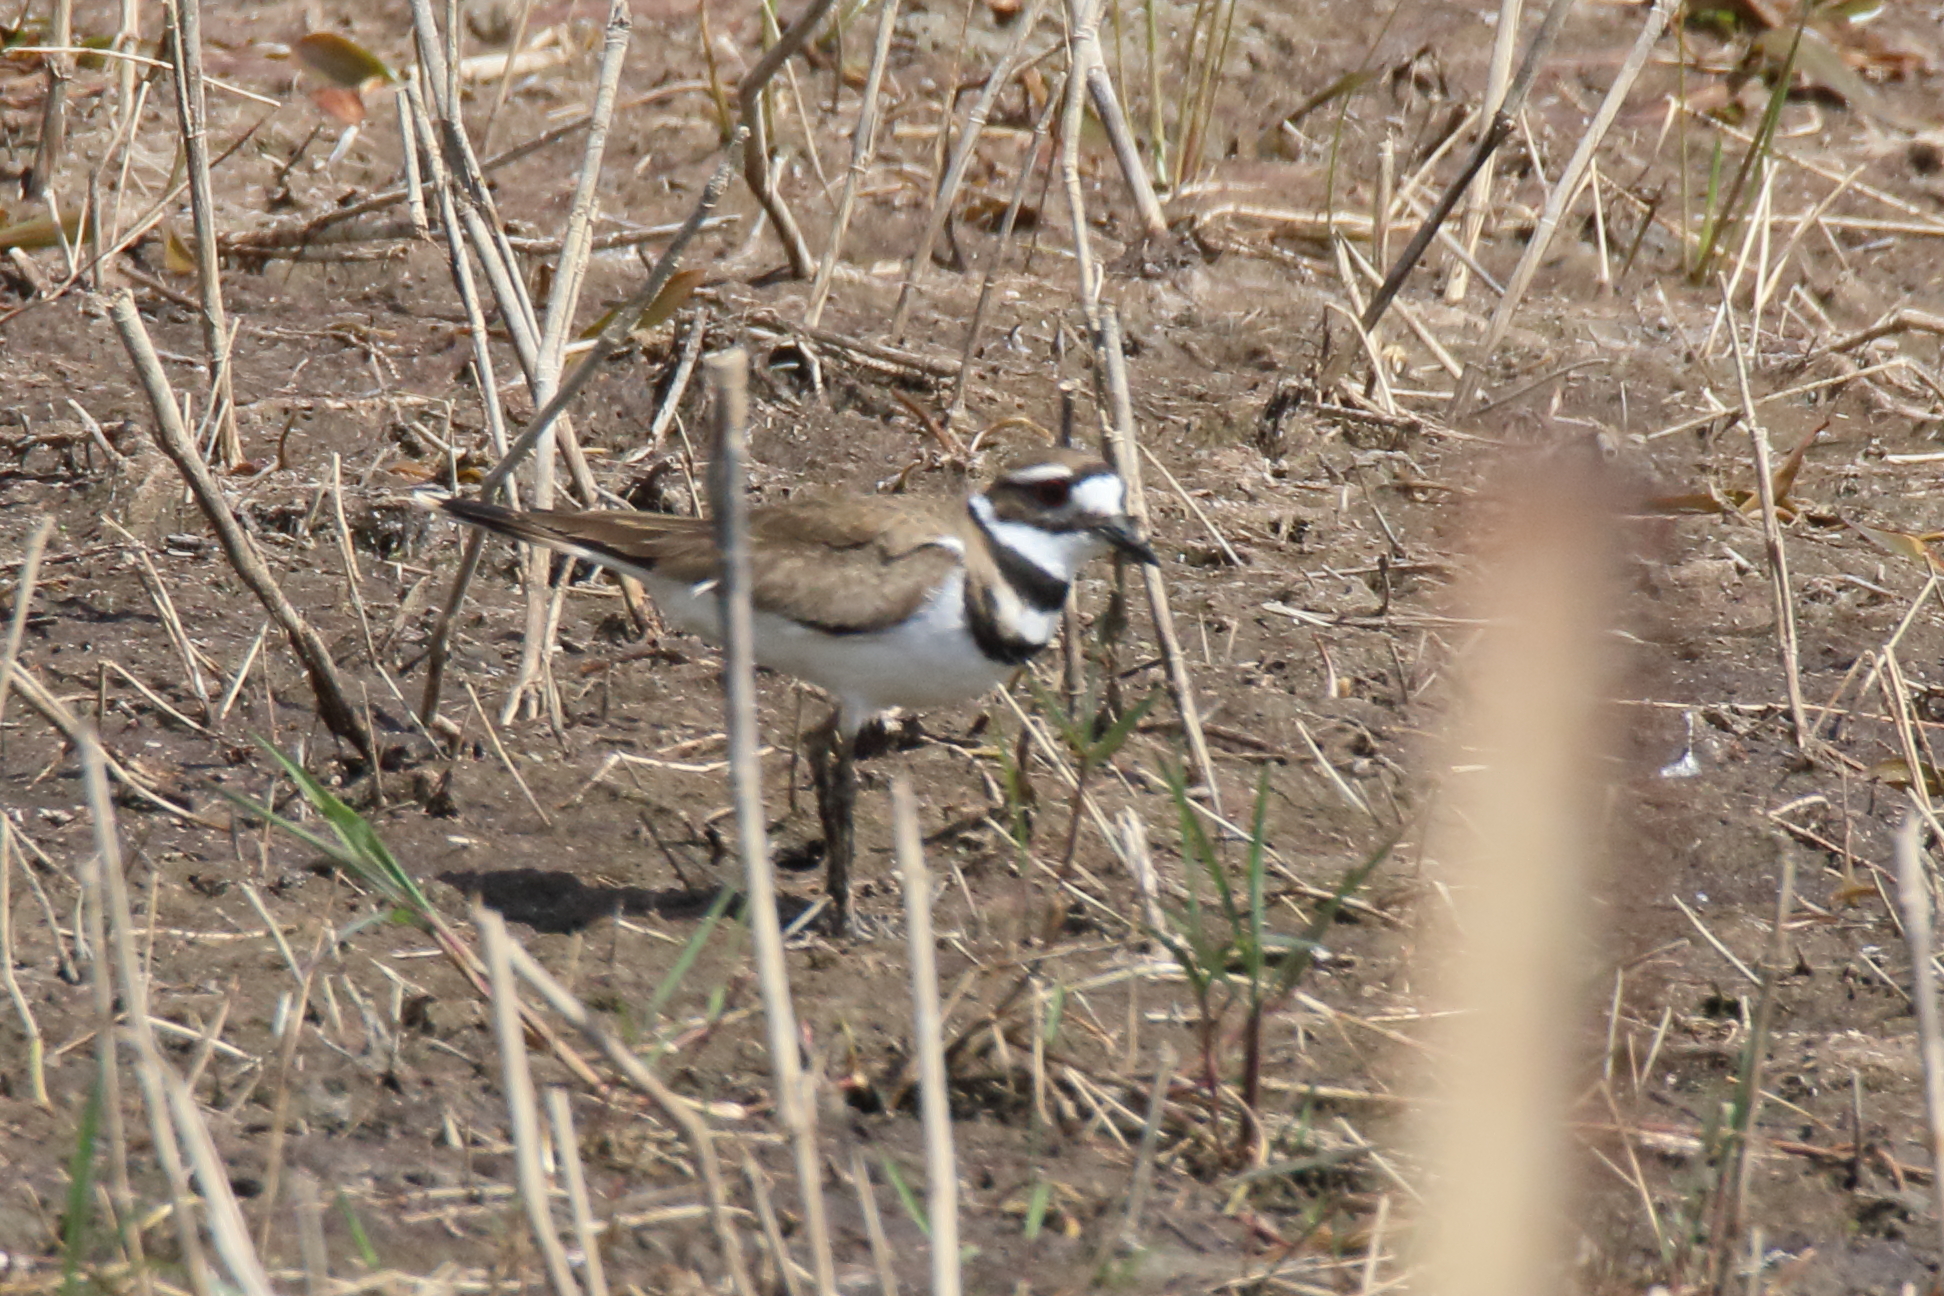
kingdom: Animalia
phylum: Chordata
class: Aves
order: Charadriiformes
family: Charadriidae
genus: Charadrius
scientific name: Charadrius vociferus
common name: Killdeer
